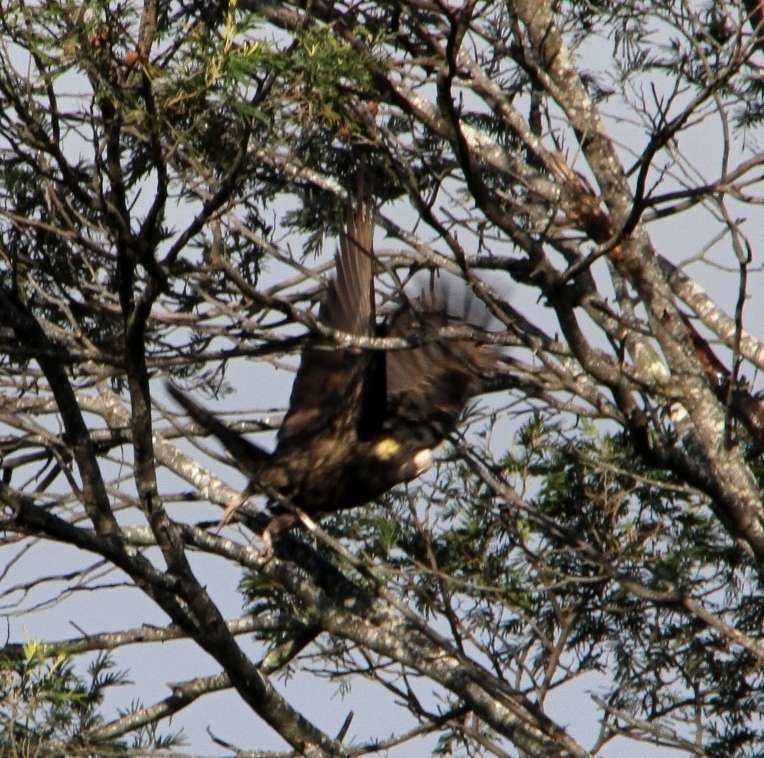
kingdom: Animalia
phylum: Chordata
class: Aves
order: Psittaciformes
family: Cacatuidae
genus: Zanda
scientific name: Zanda funerea
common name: Yellow-tailed black-cockatoo
